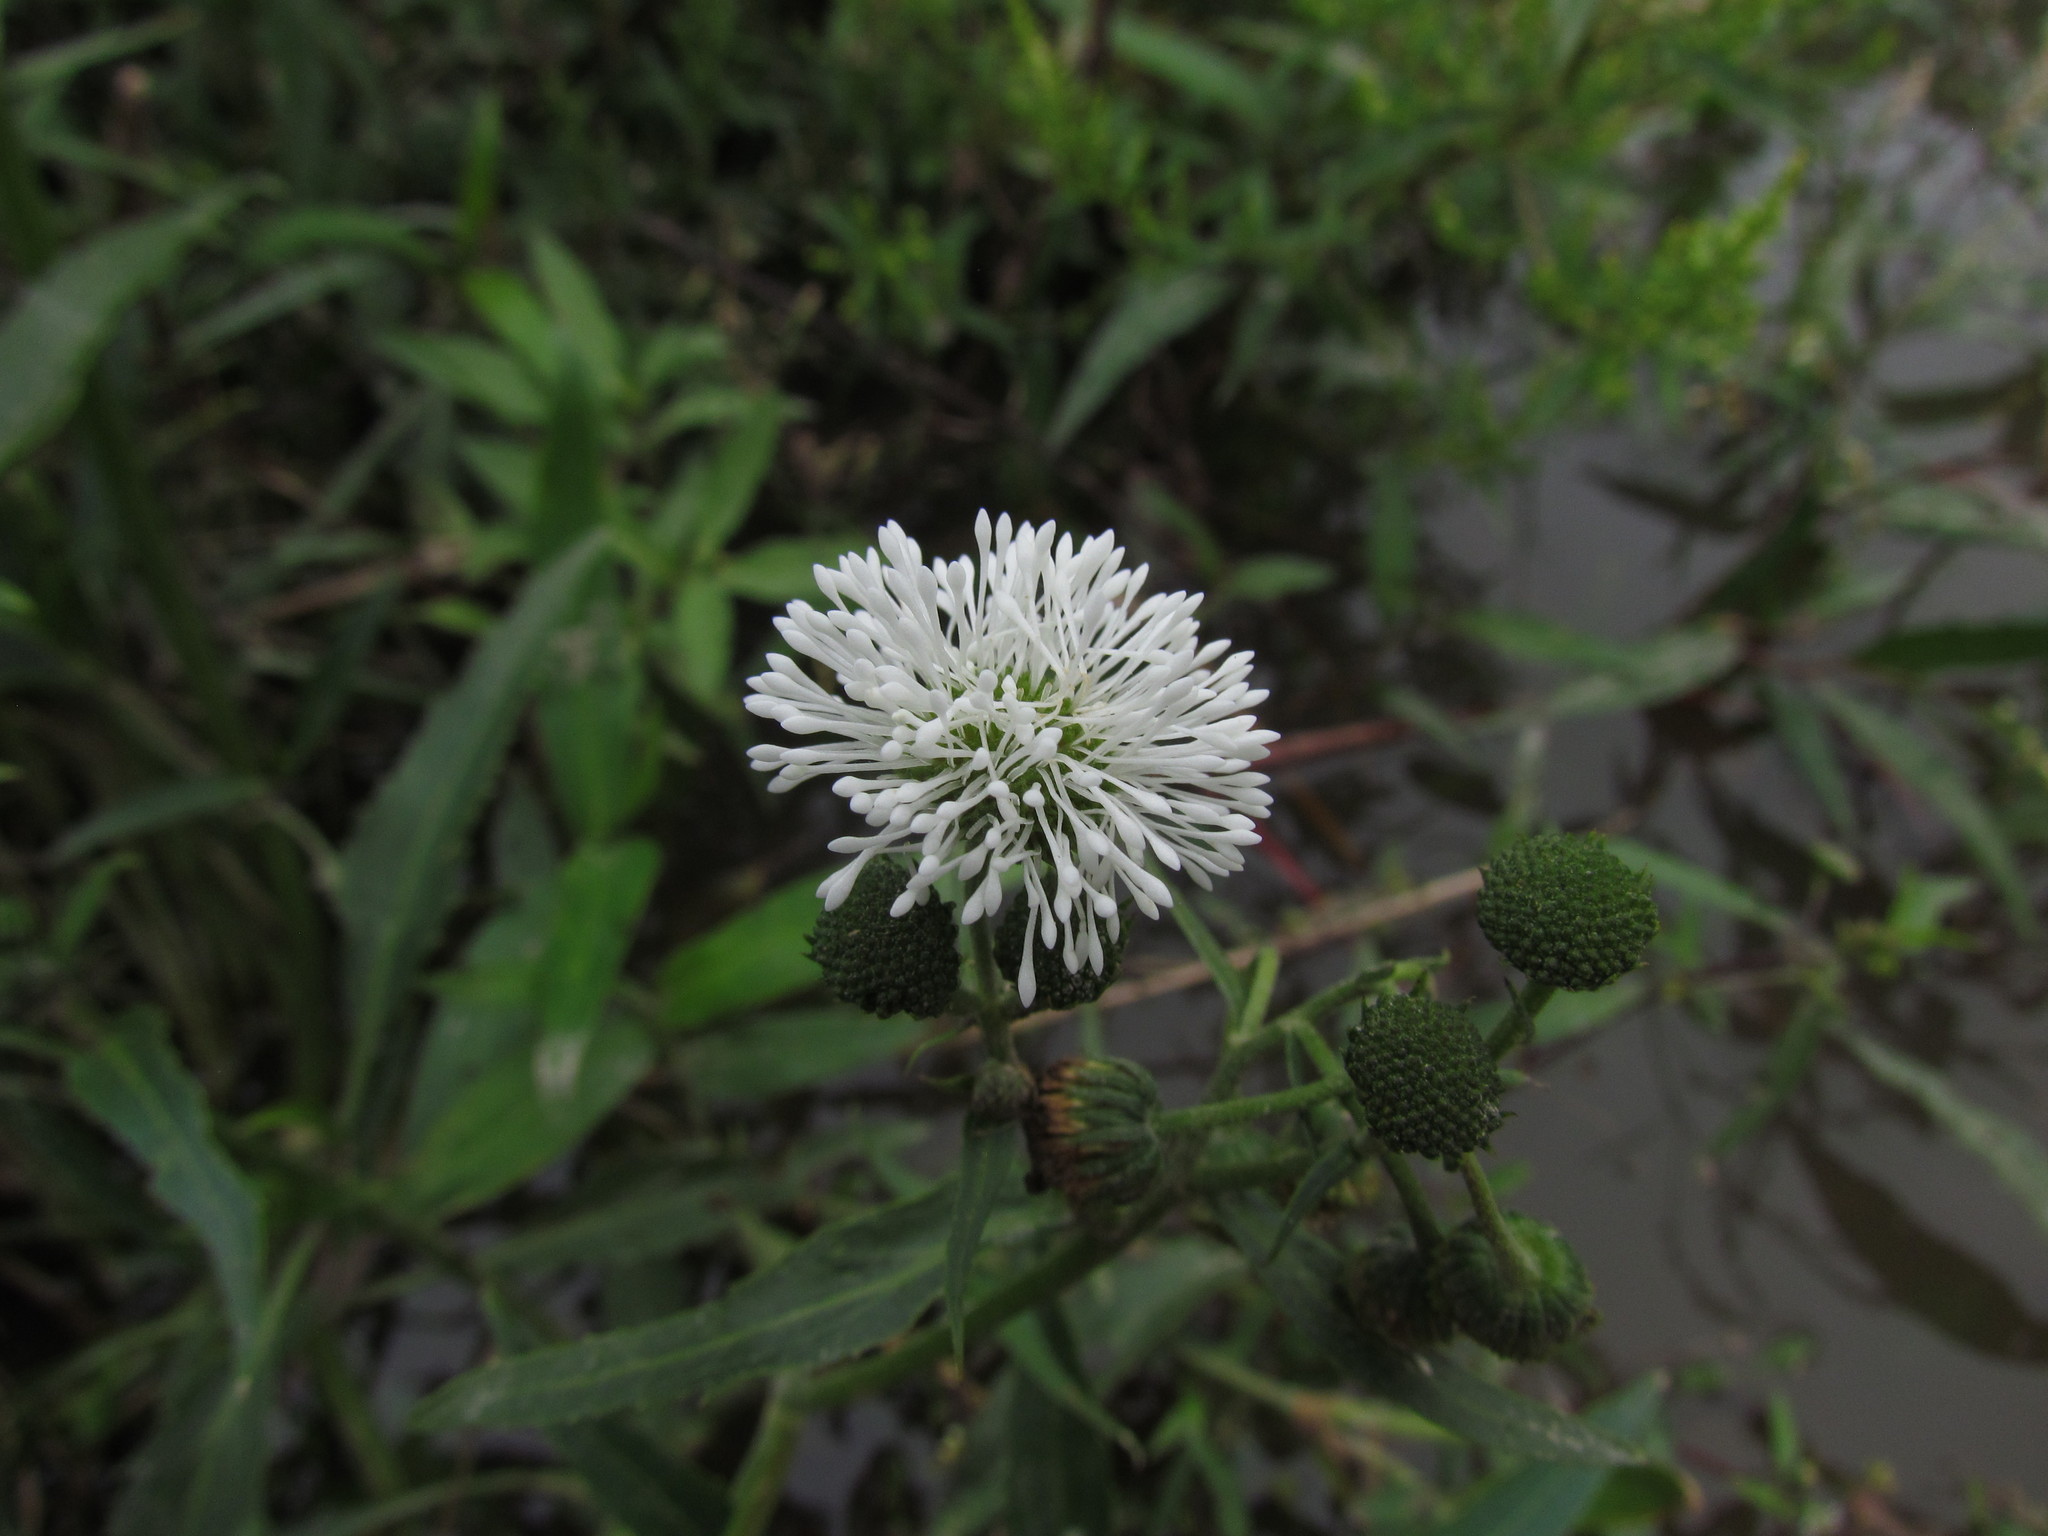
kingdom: Plantae
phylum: Tracheophyta
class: Magnoliopsida
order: Asterales
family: Asteraceae
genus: Gymnocoronis
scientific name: Gymnocoronis spilanthoides
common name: Senegal teaplant
